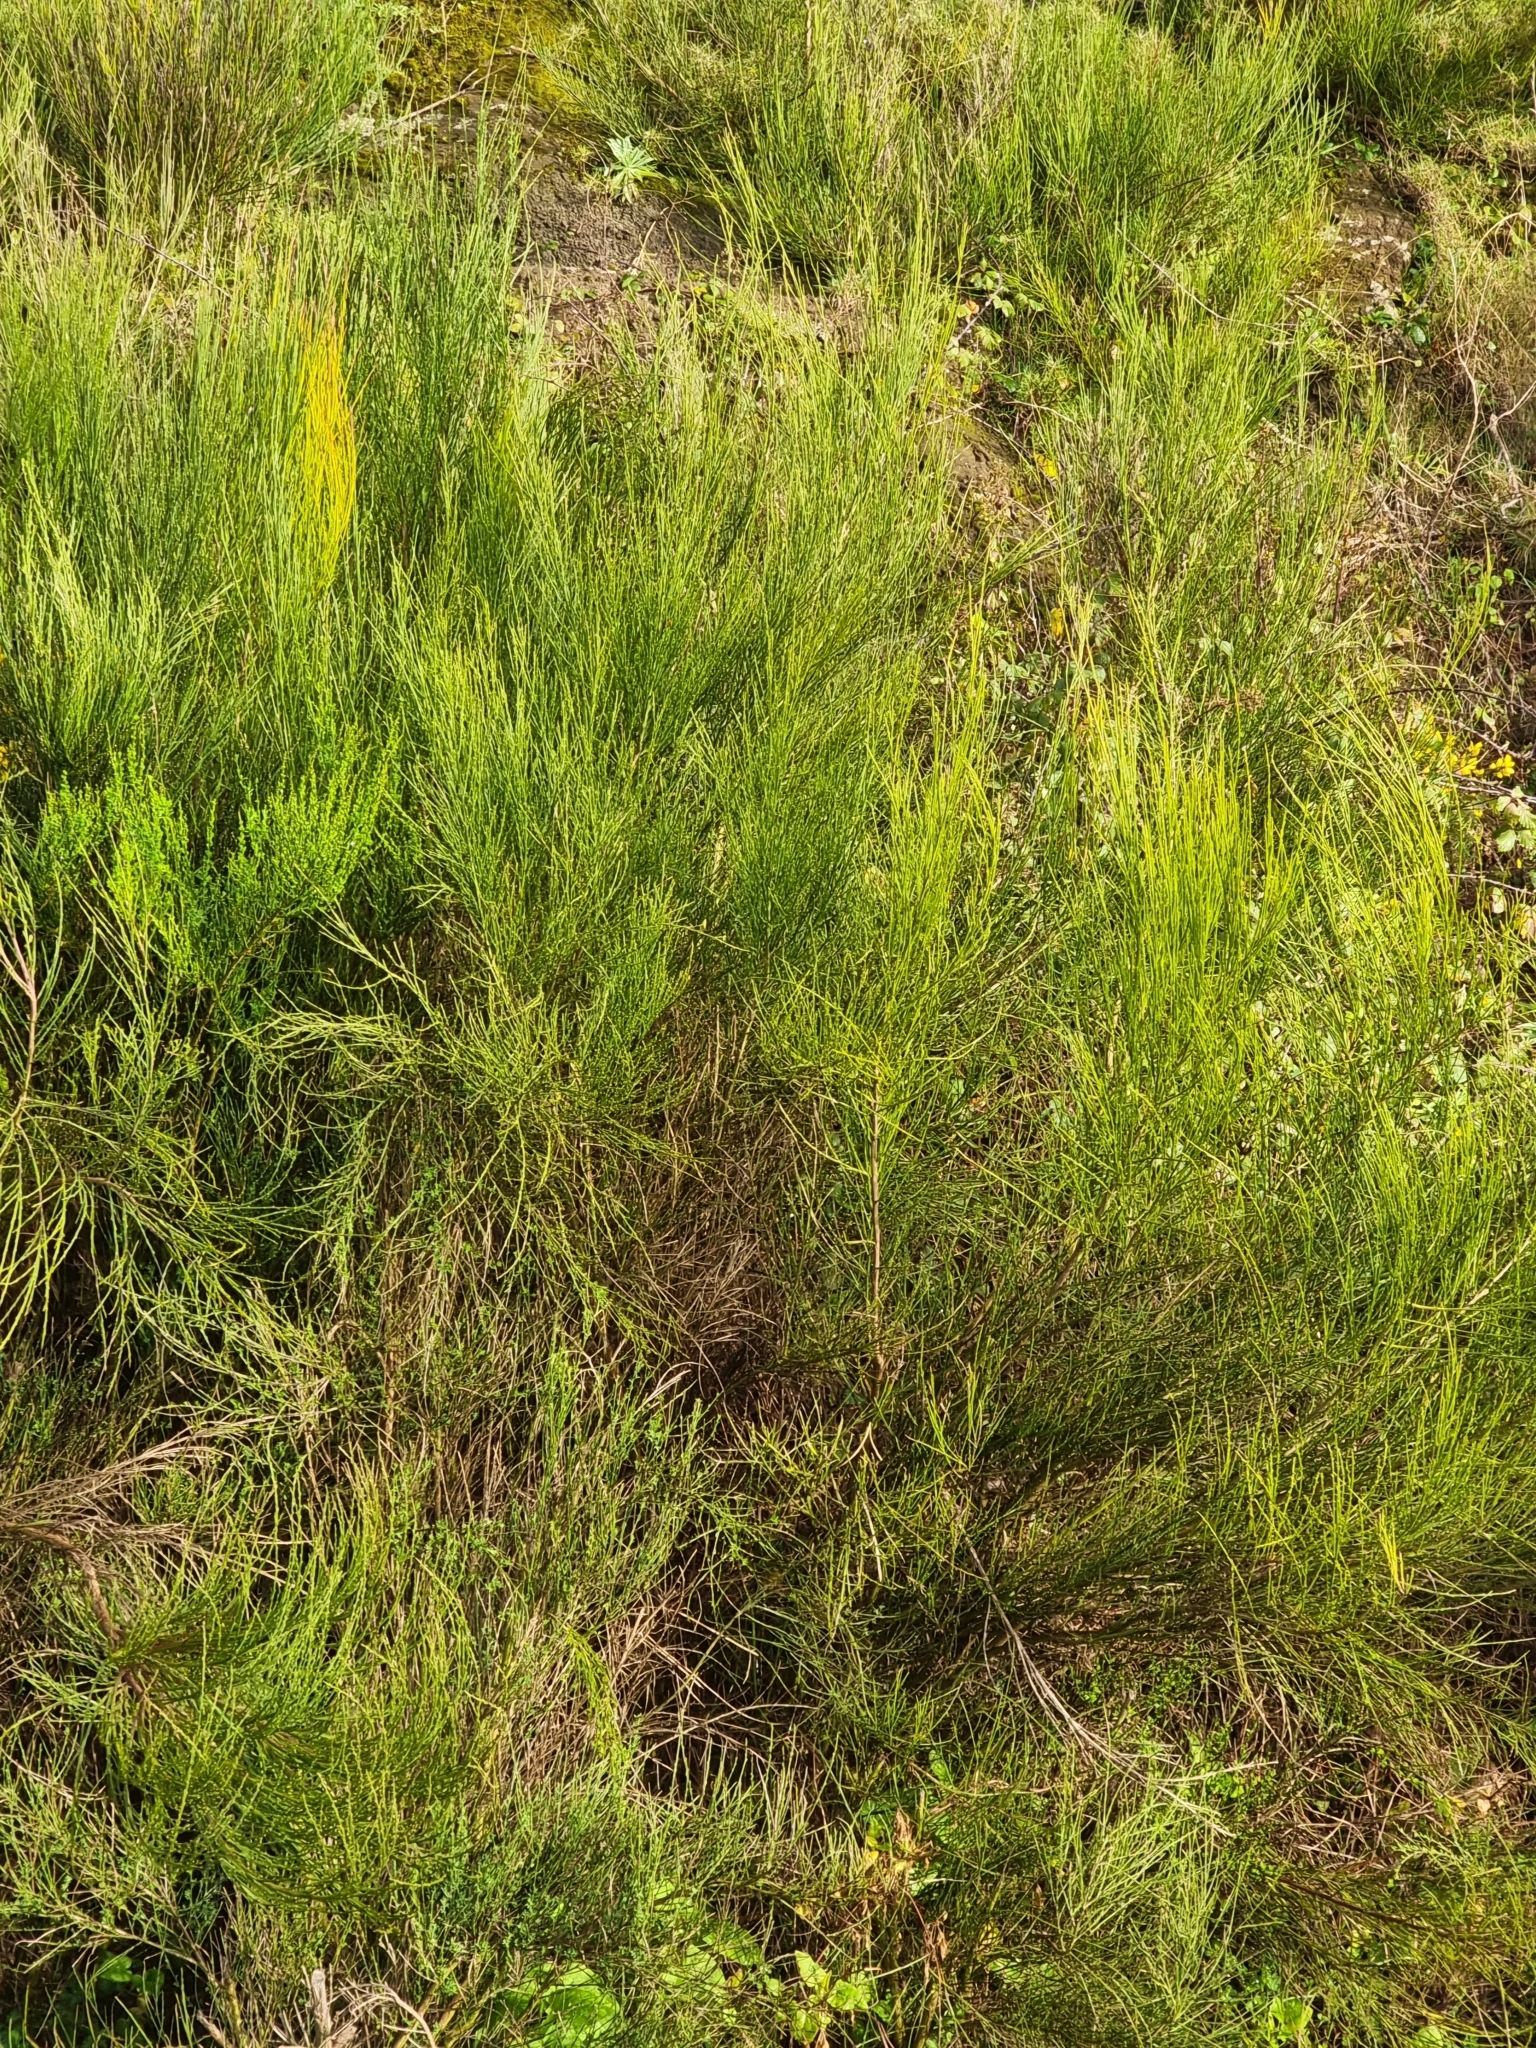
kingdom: Plantae
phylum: Tracheophyta
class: Magnoliopsida
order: Fabales
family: Fabaceae
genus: Cytisus
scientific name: Cytisus scoparius
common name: Scotch broom
